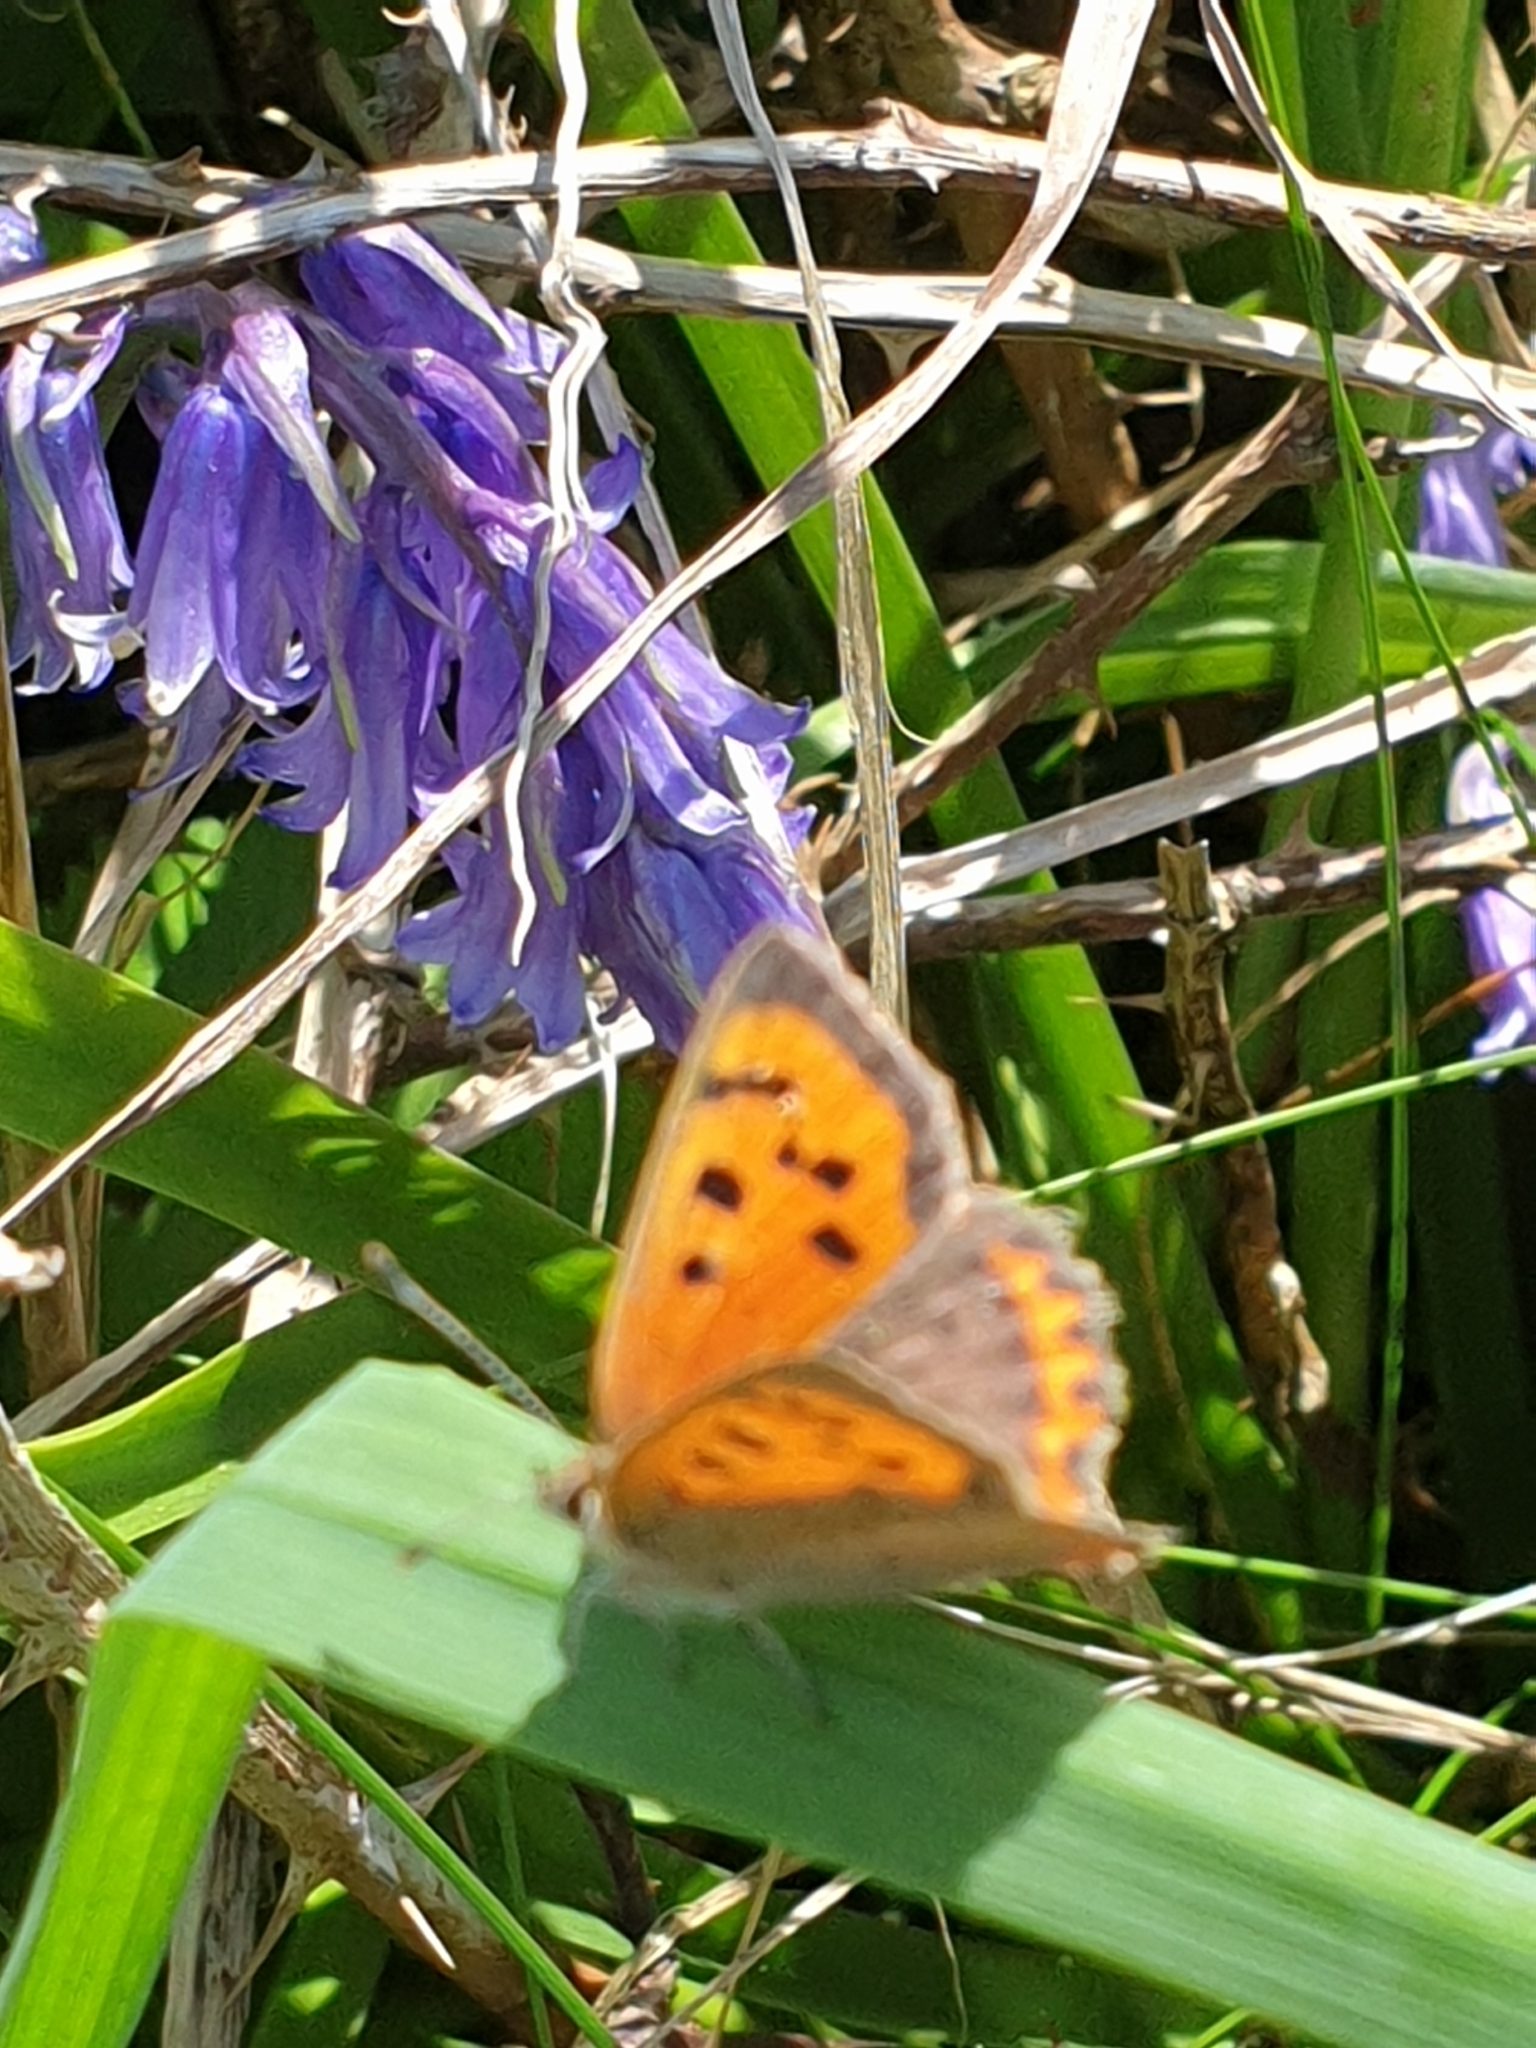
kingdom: Animalia
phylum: Arthropoda
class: Insecta
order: Lepidoptera
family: Lycaenidae
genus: Lycaena
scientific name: Lycaena phlaeas
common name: Small copper
